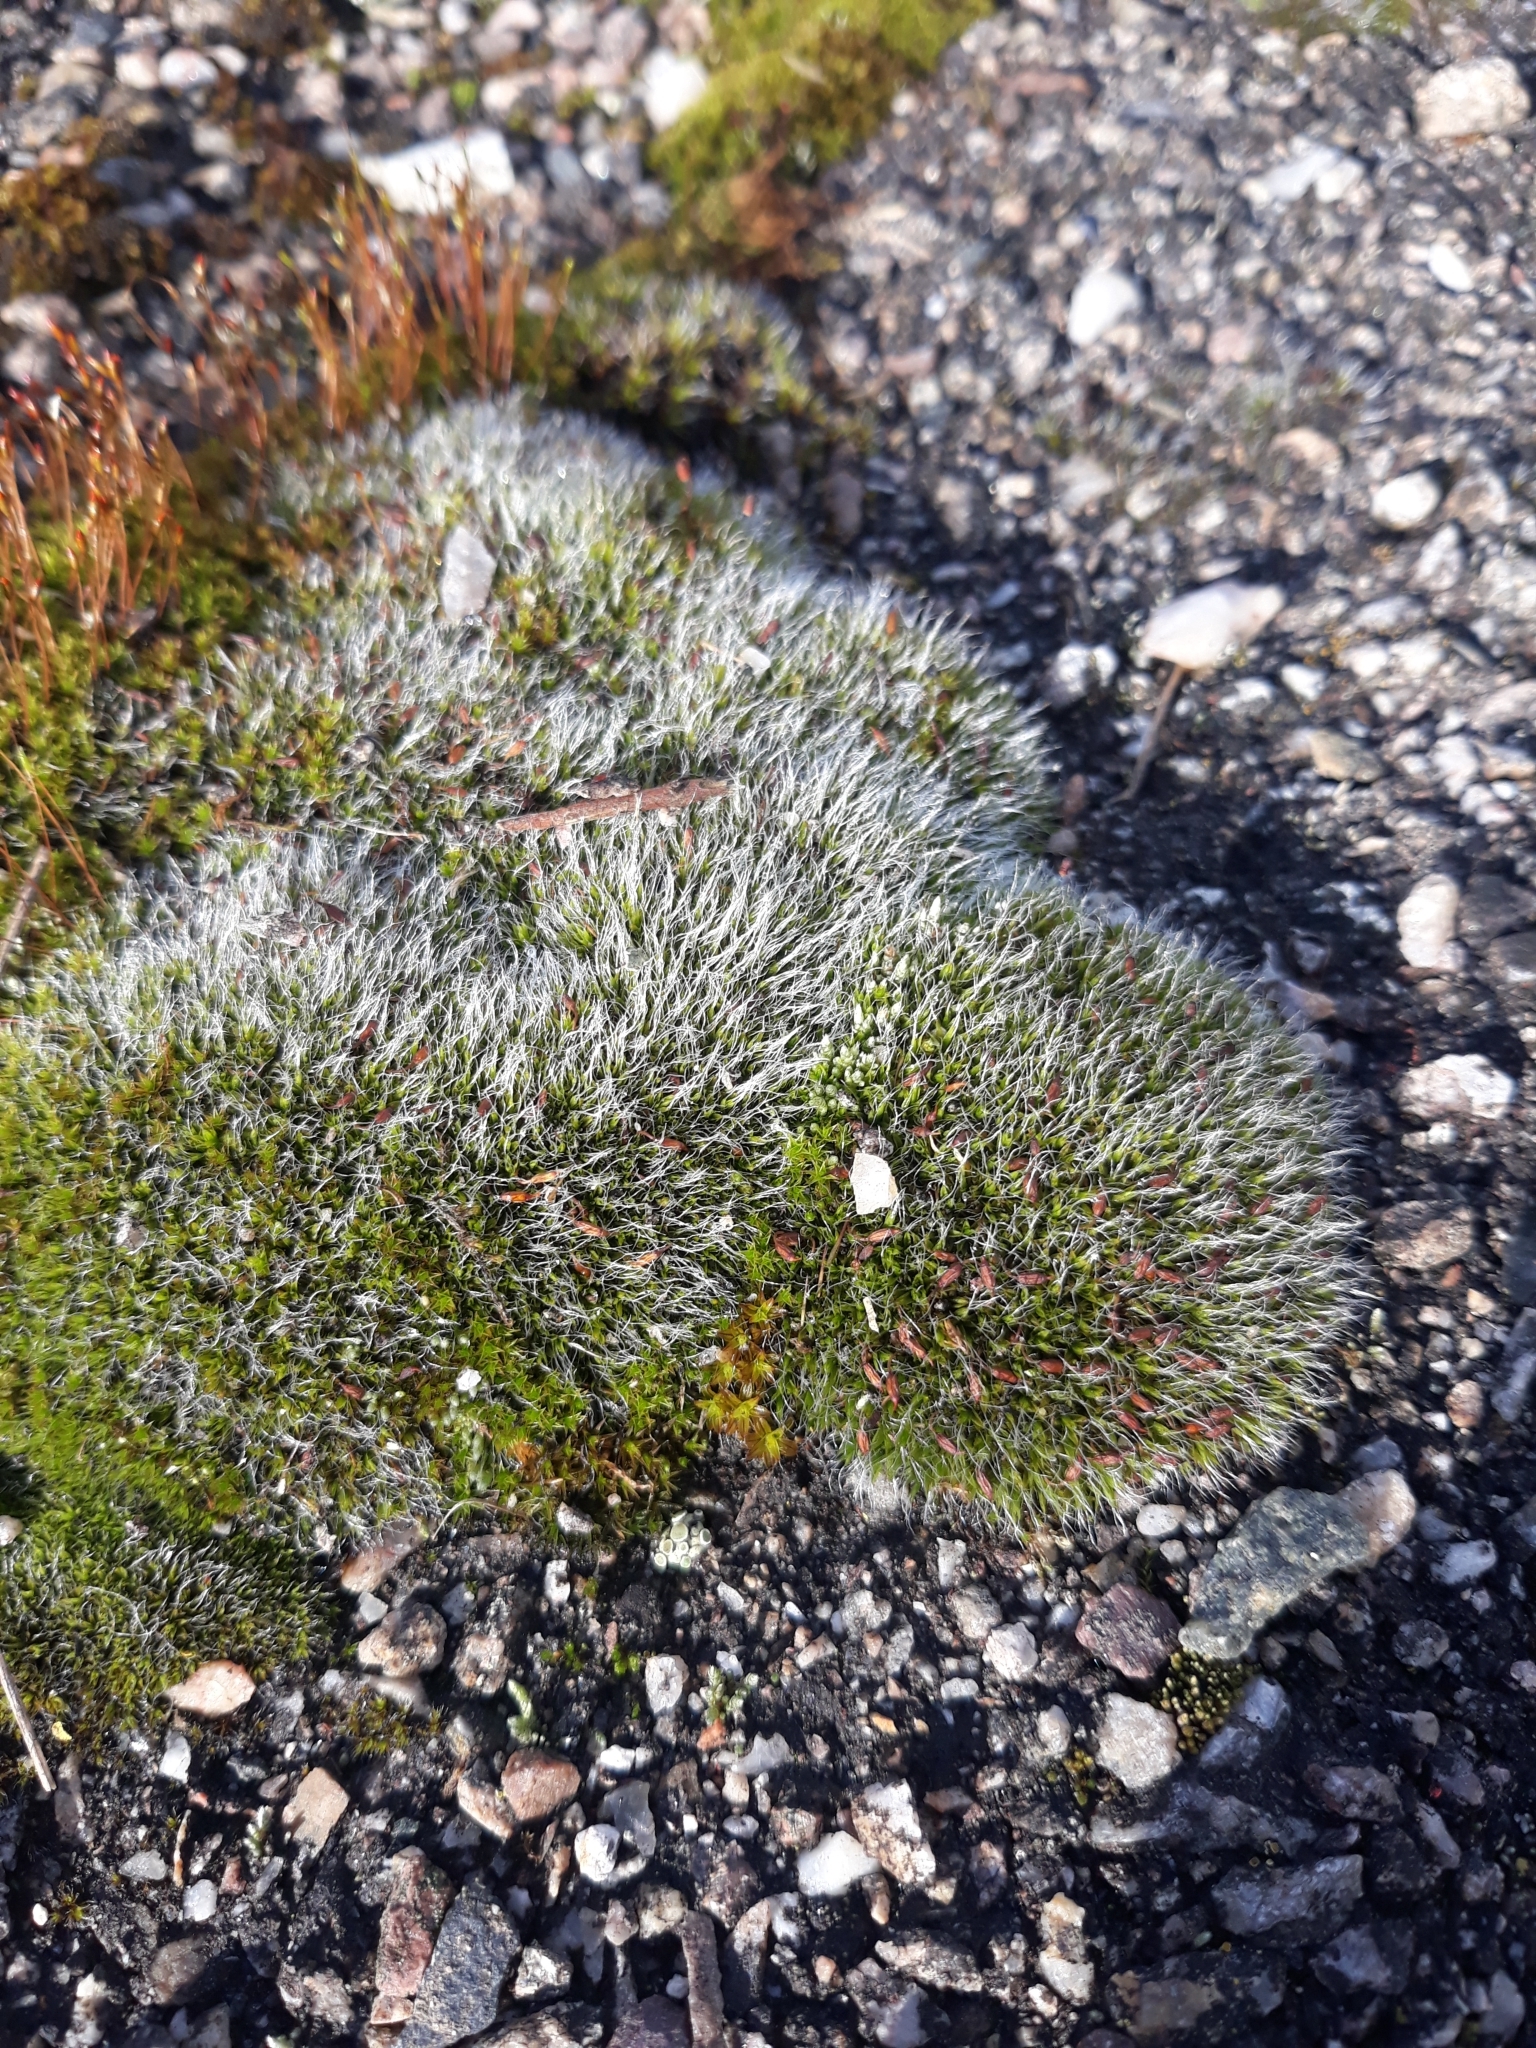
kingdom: Plantae
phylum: Bryophyta
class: Bryopsida
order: Grimmiales
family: Grimmiaceae
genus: Grimmia
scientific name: Grimmia pulvinata
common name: Grey-cushioned grimmia
